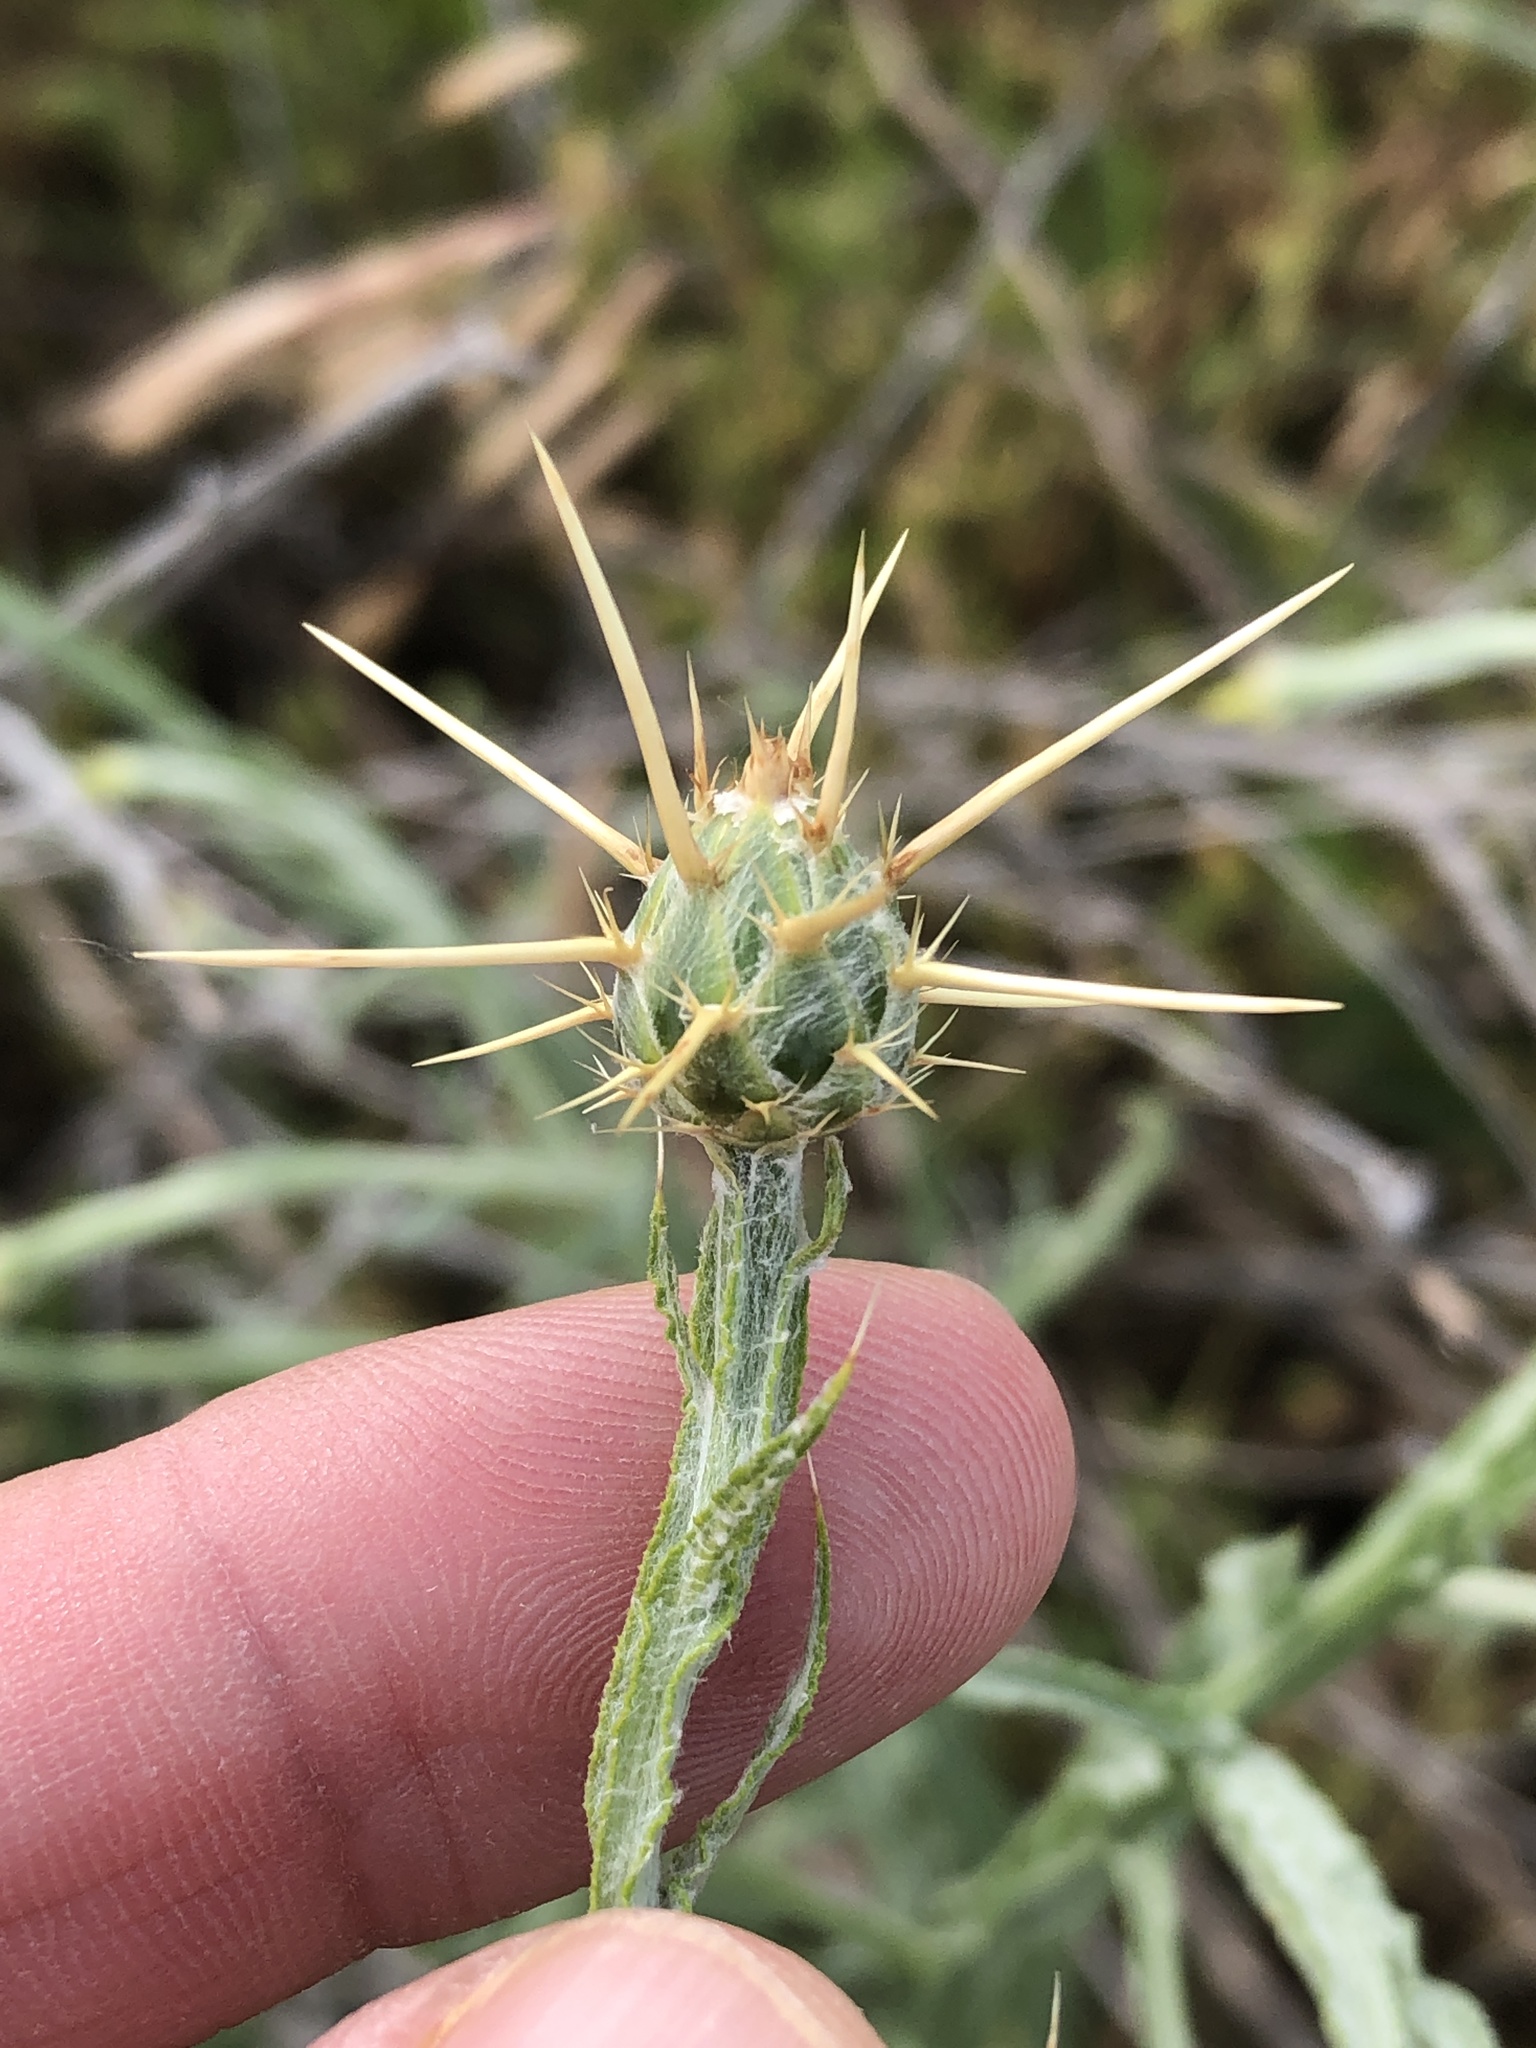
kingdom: Plantae
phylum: Tracheophyta
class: Magnoliopsida
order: Asterales
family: Asteraceae
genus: Centaurea
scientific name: Centaurea solstitialis
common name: Yellow star-thistle
